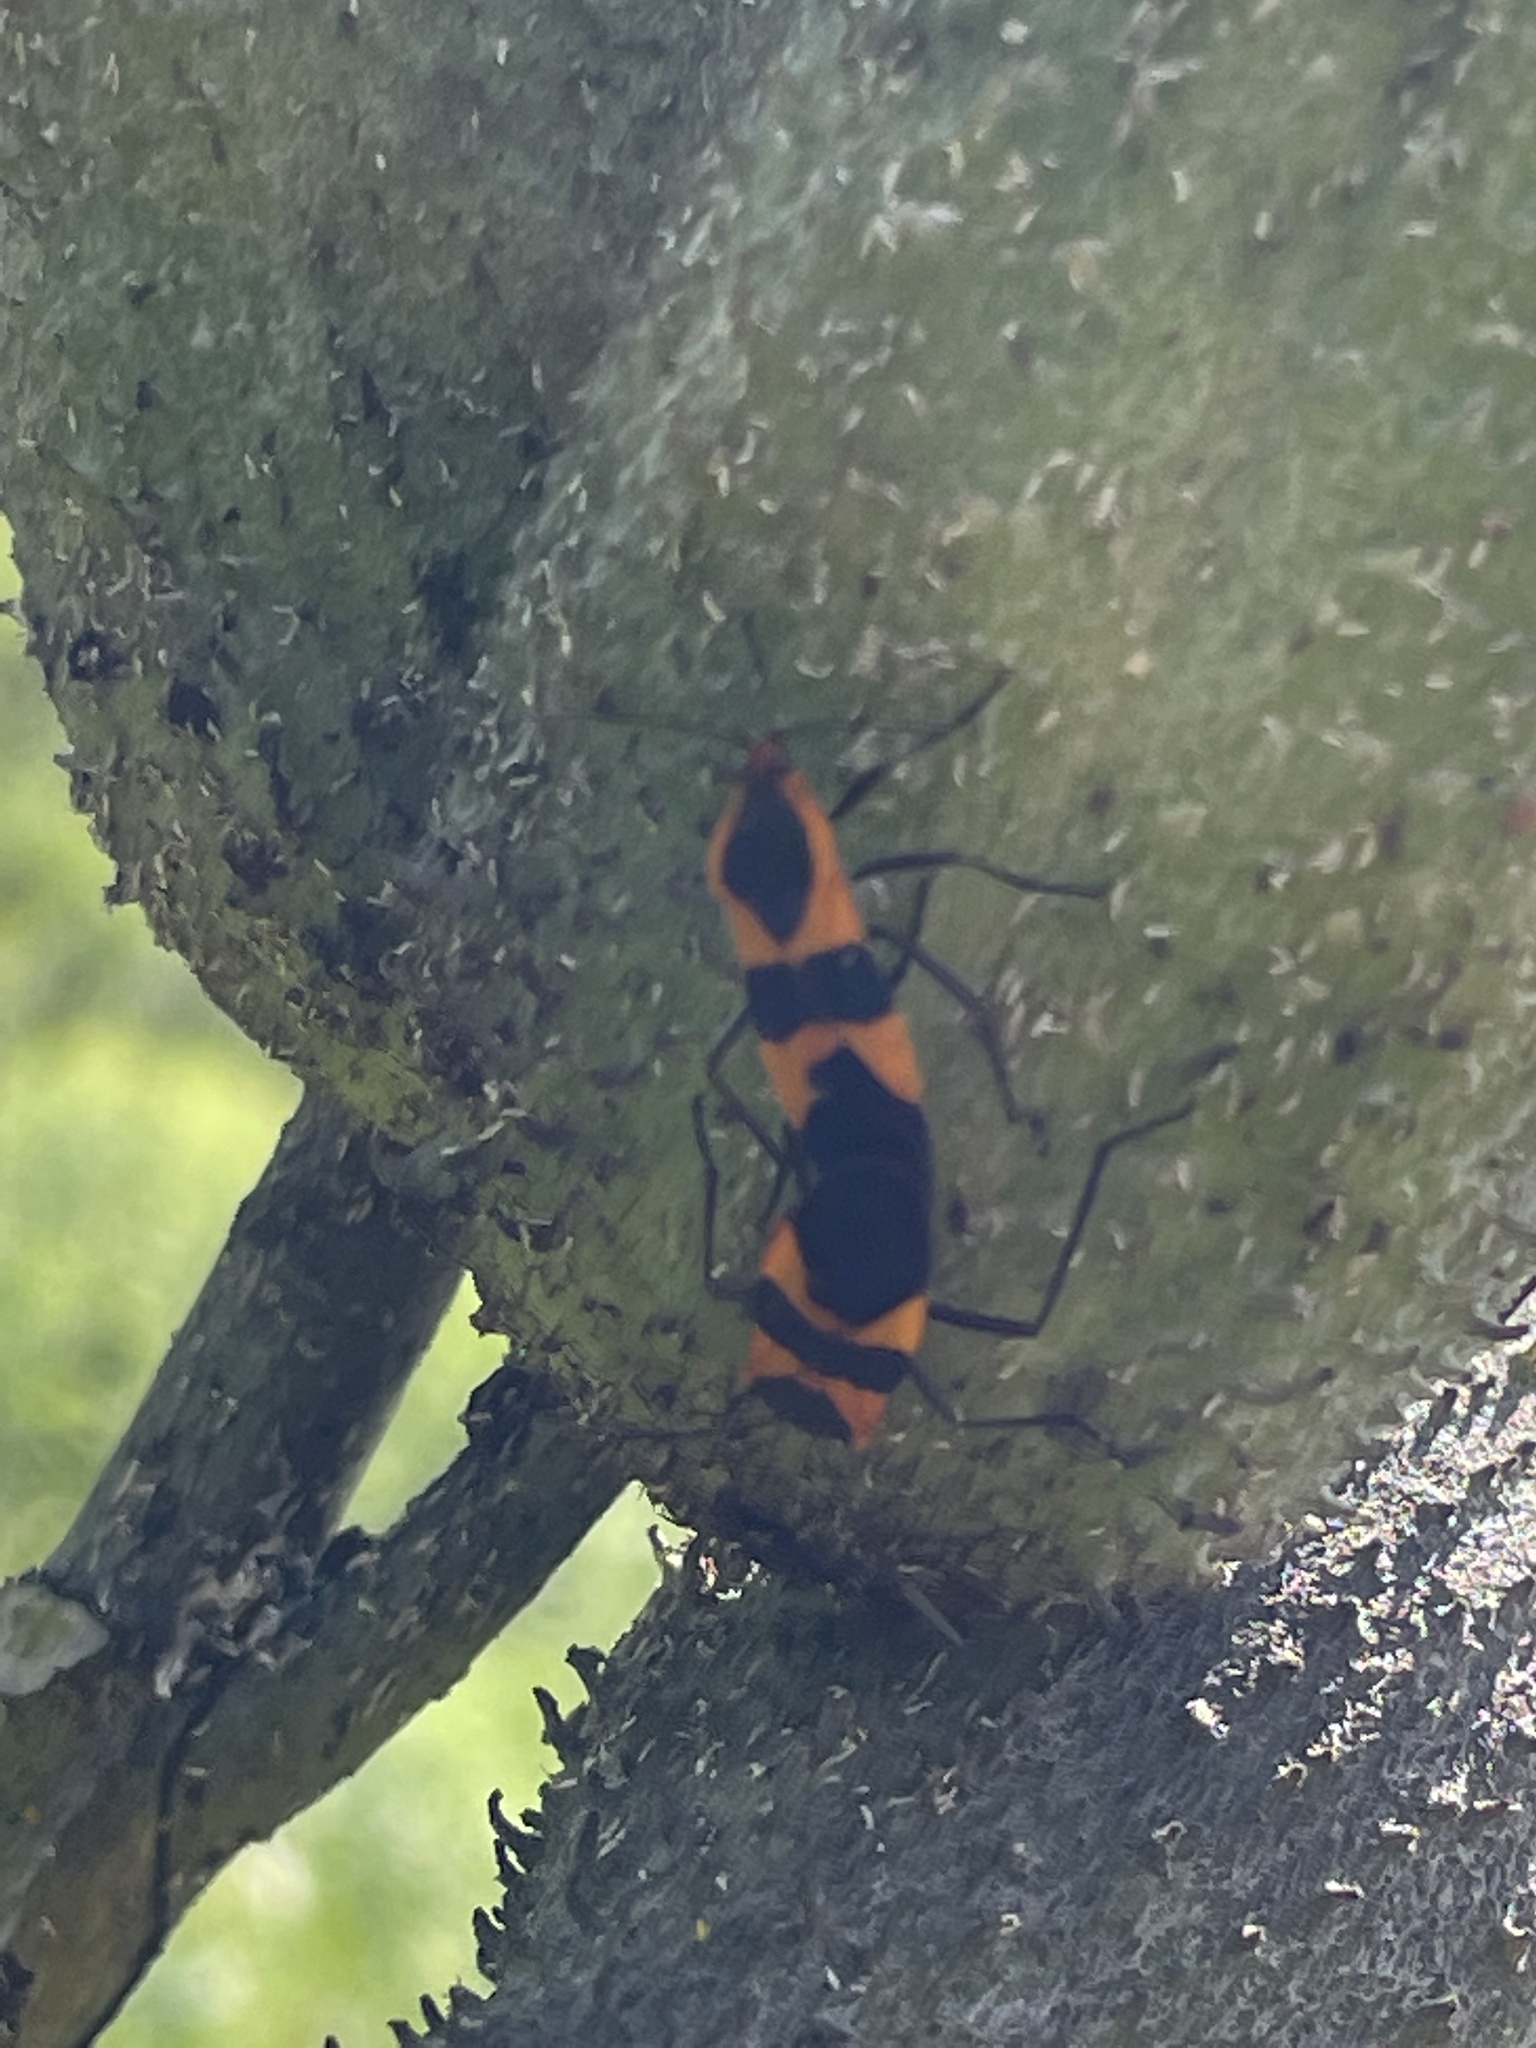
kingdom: Animalia
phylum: Arthropoda
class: Insecta
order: Hemiptera
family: Lygaeidae
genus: Oncopeltus
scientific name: Oncopeltus fasciatus
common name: Large milkweed bug
